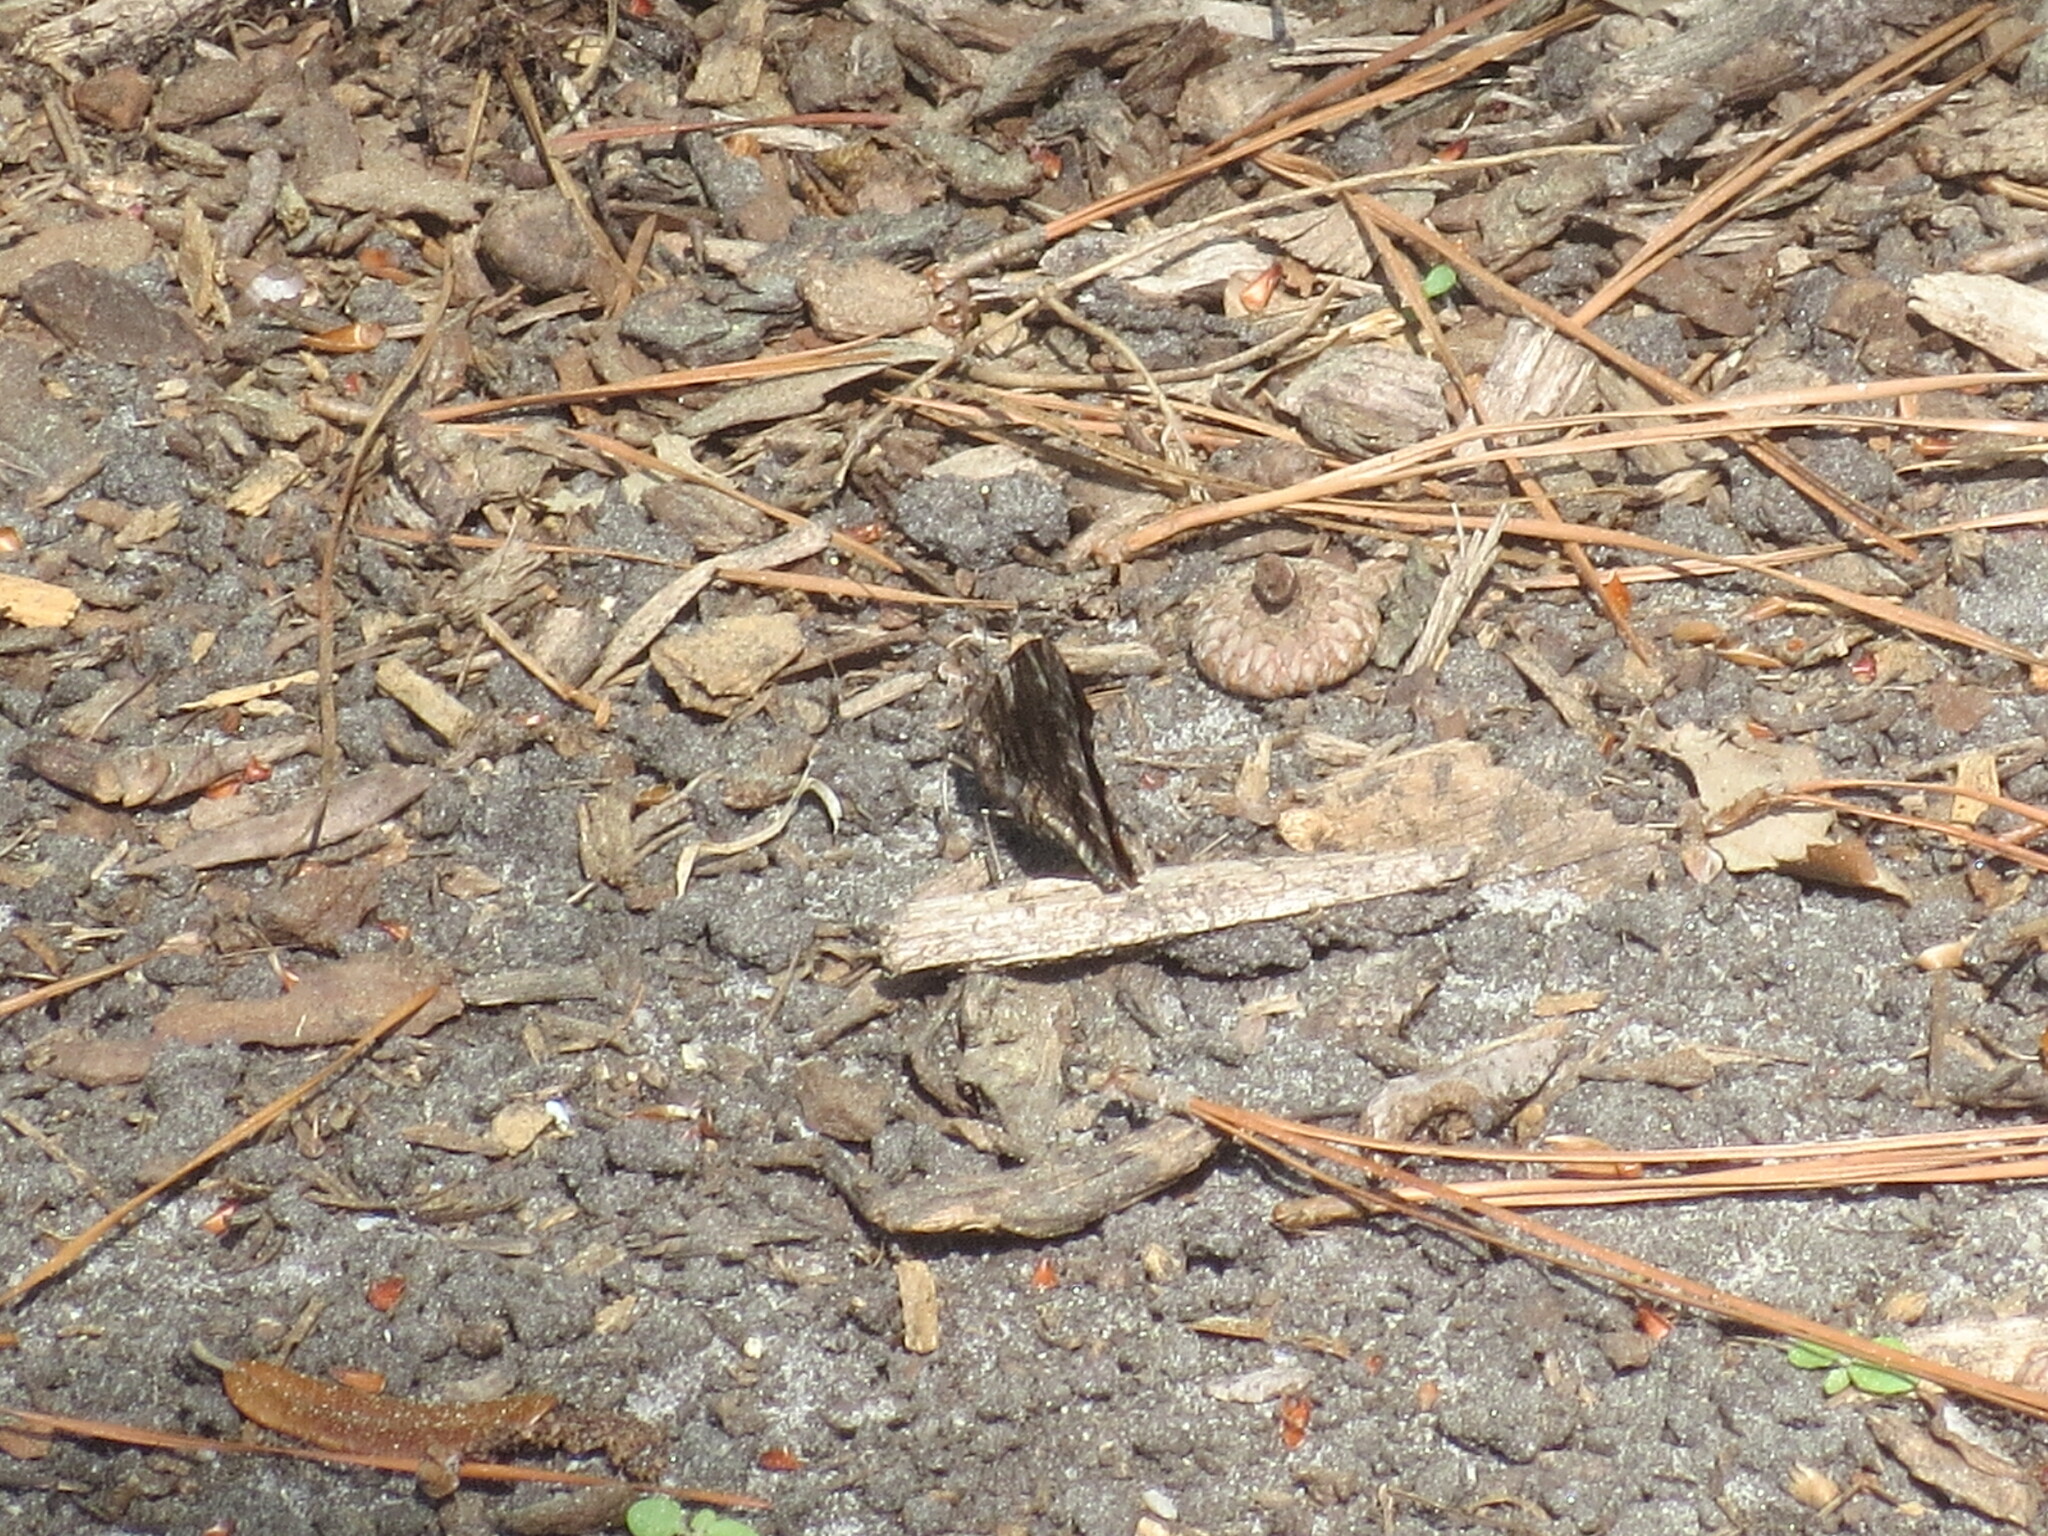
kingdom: Animalia
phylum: Arthropoda
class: Insecta
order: Lepidoptera
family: Nymphalidae
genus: Vanessa
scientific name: Vanessa atalanta
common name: Red admiral
